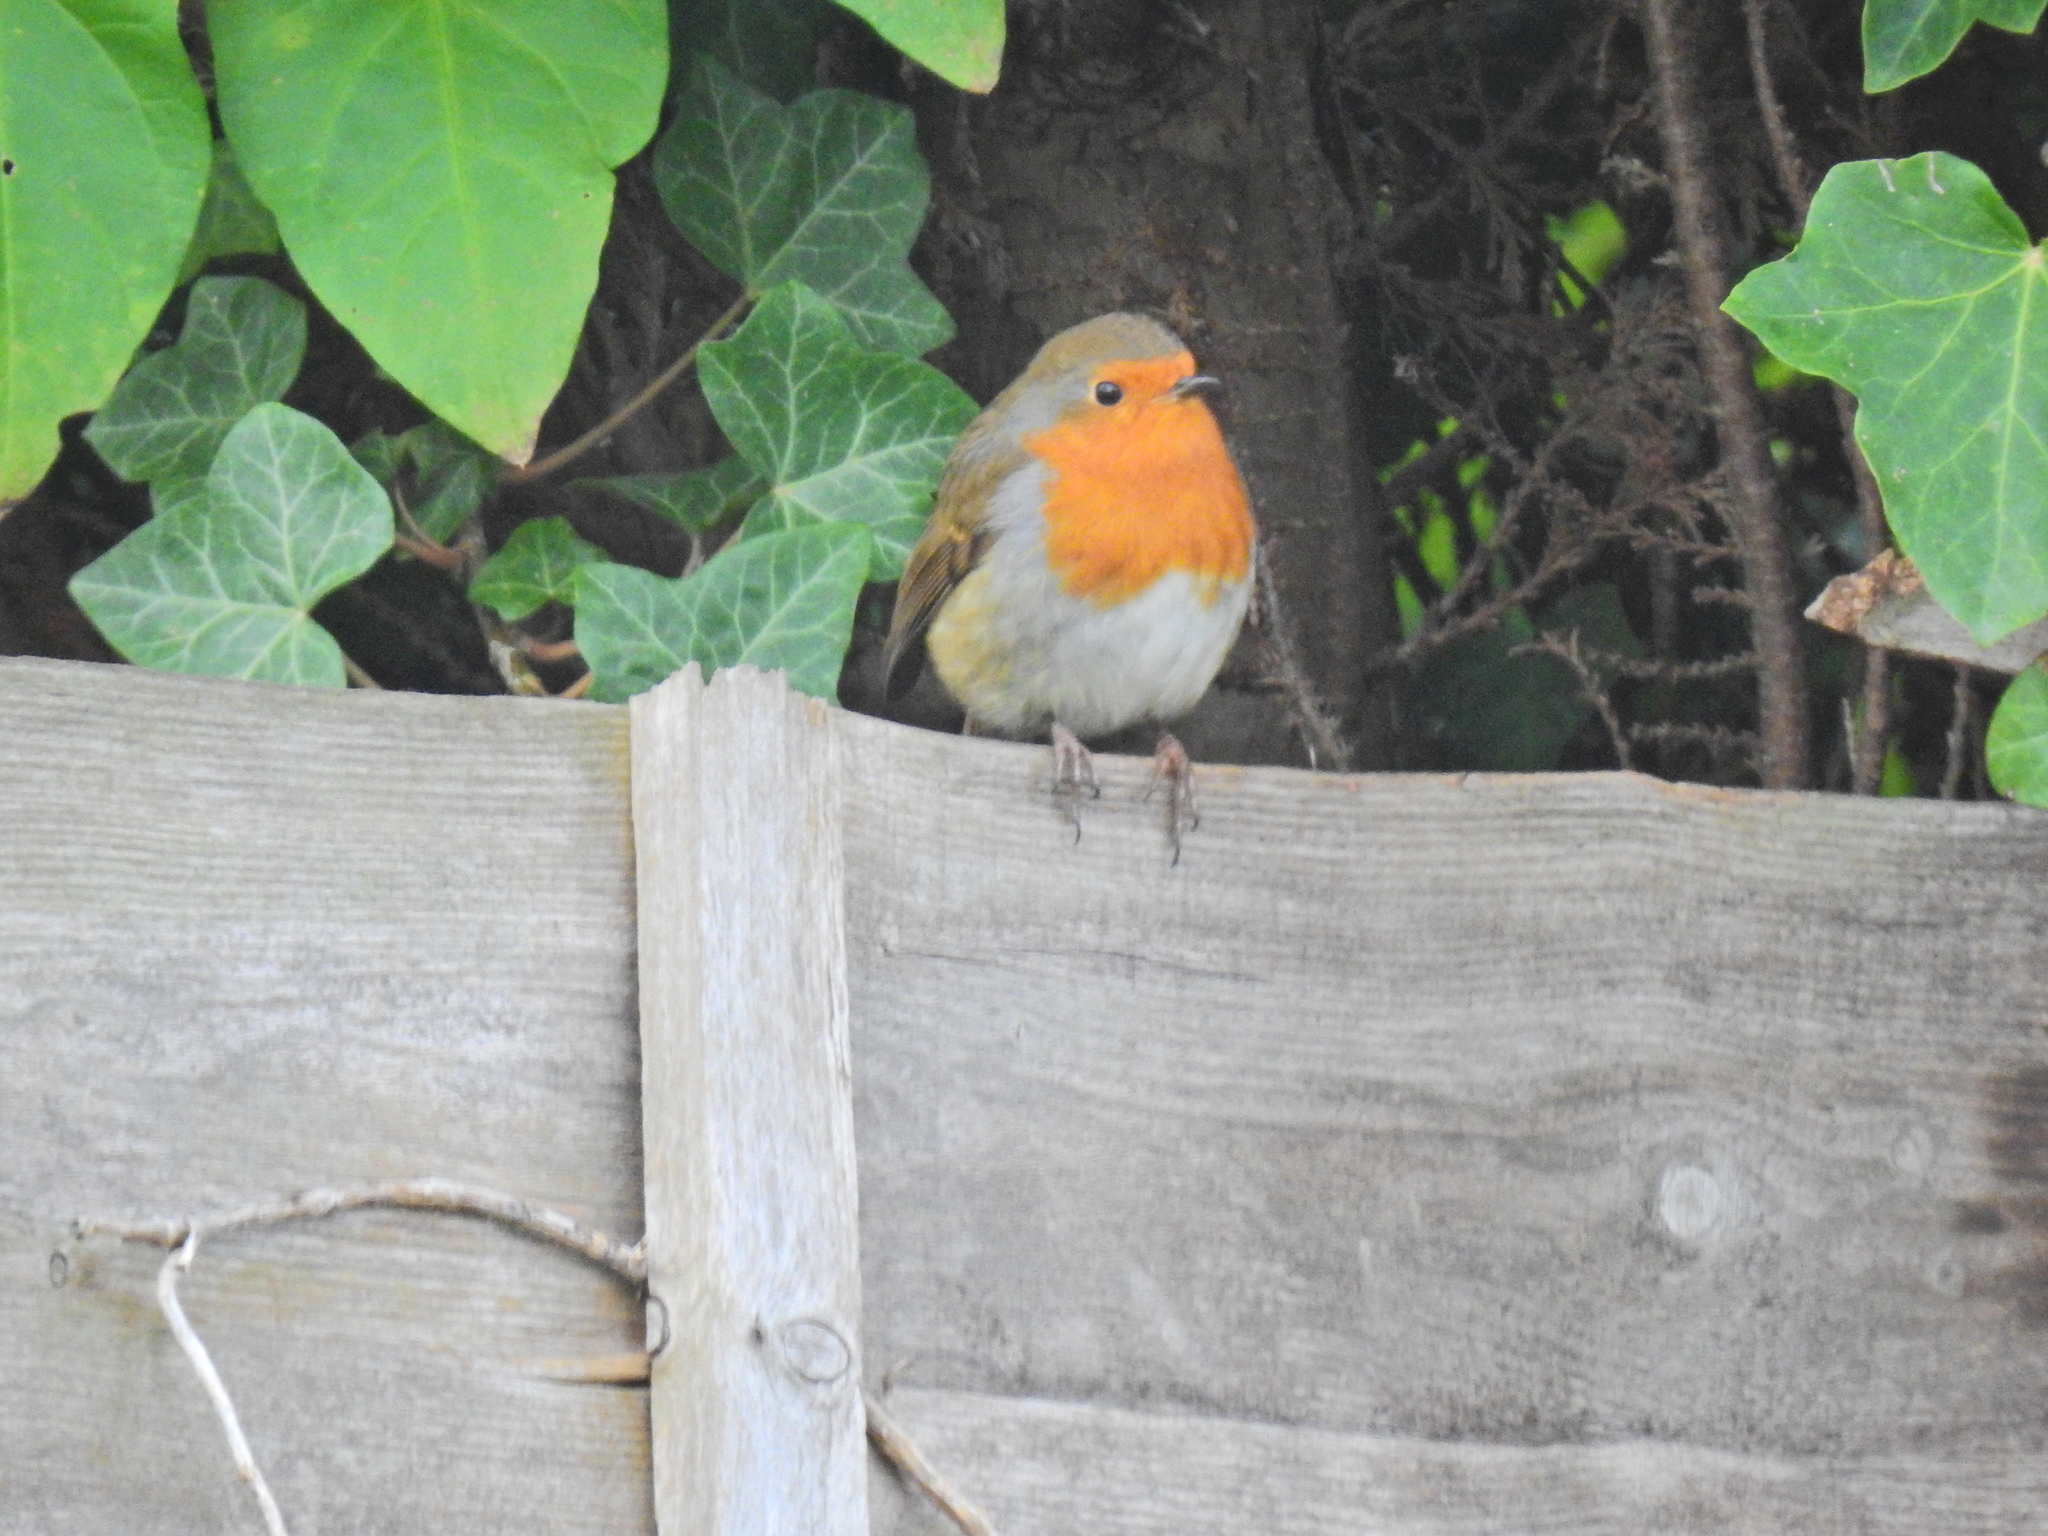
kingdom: Animalia
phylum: Chordata
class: Aves
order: Passeriformes
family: Muscicapidae
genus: Erithacus
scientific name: Erithacus rubecula
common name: European robin
